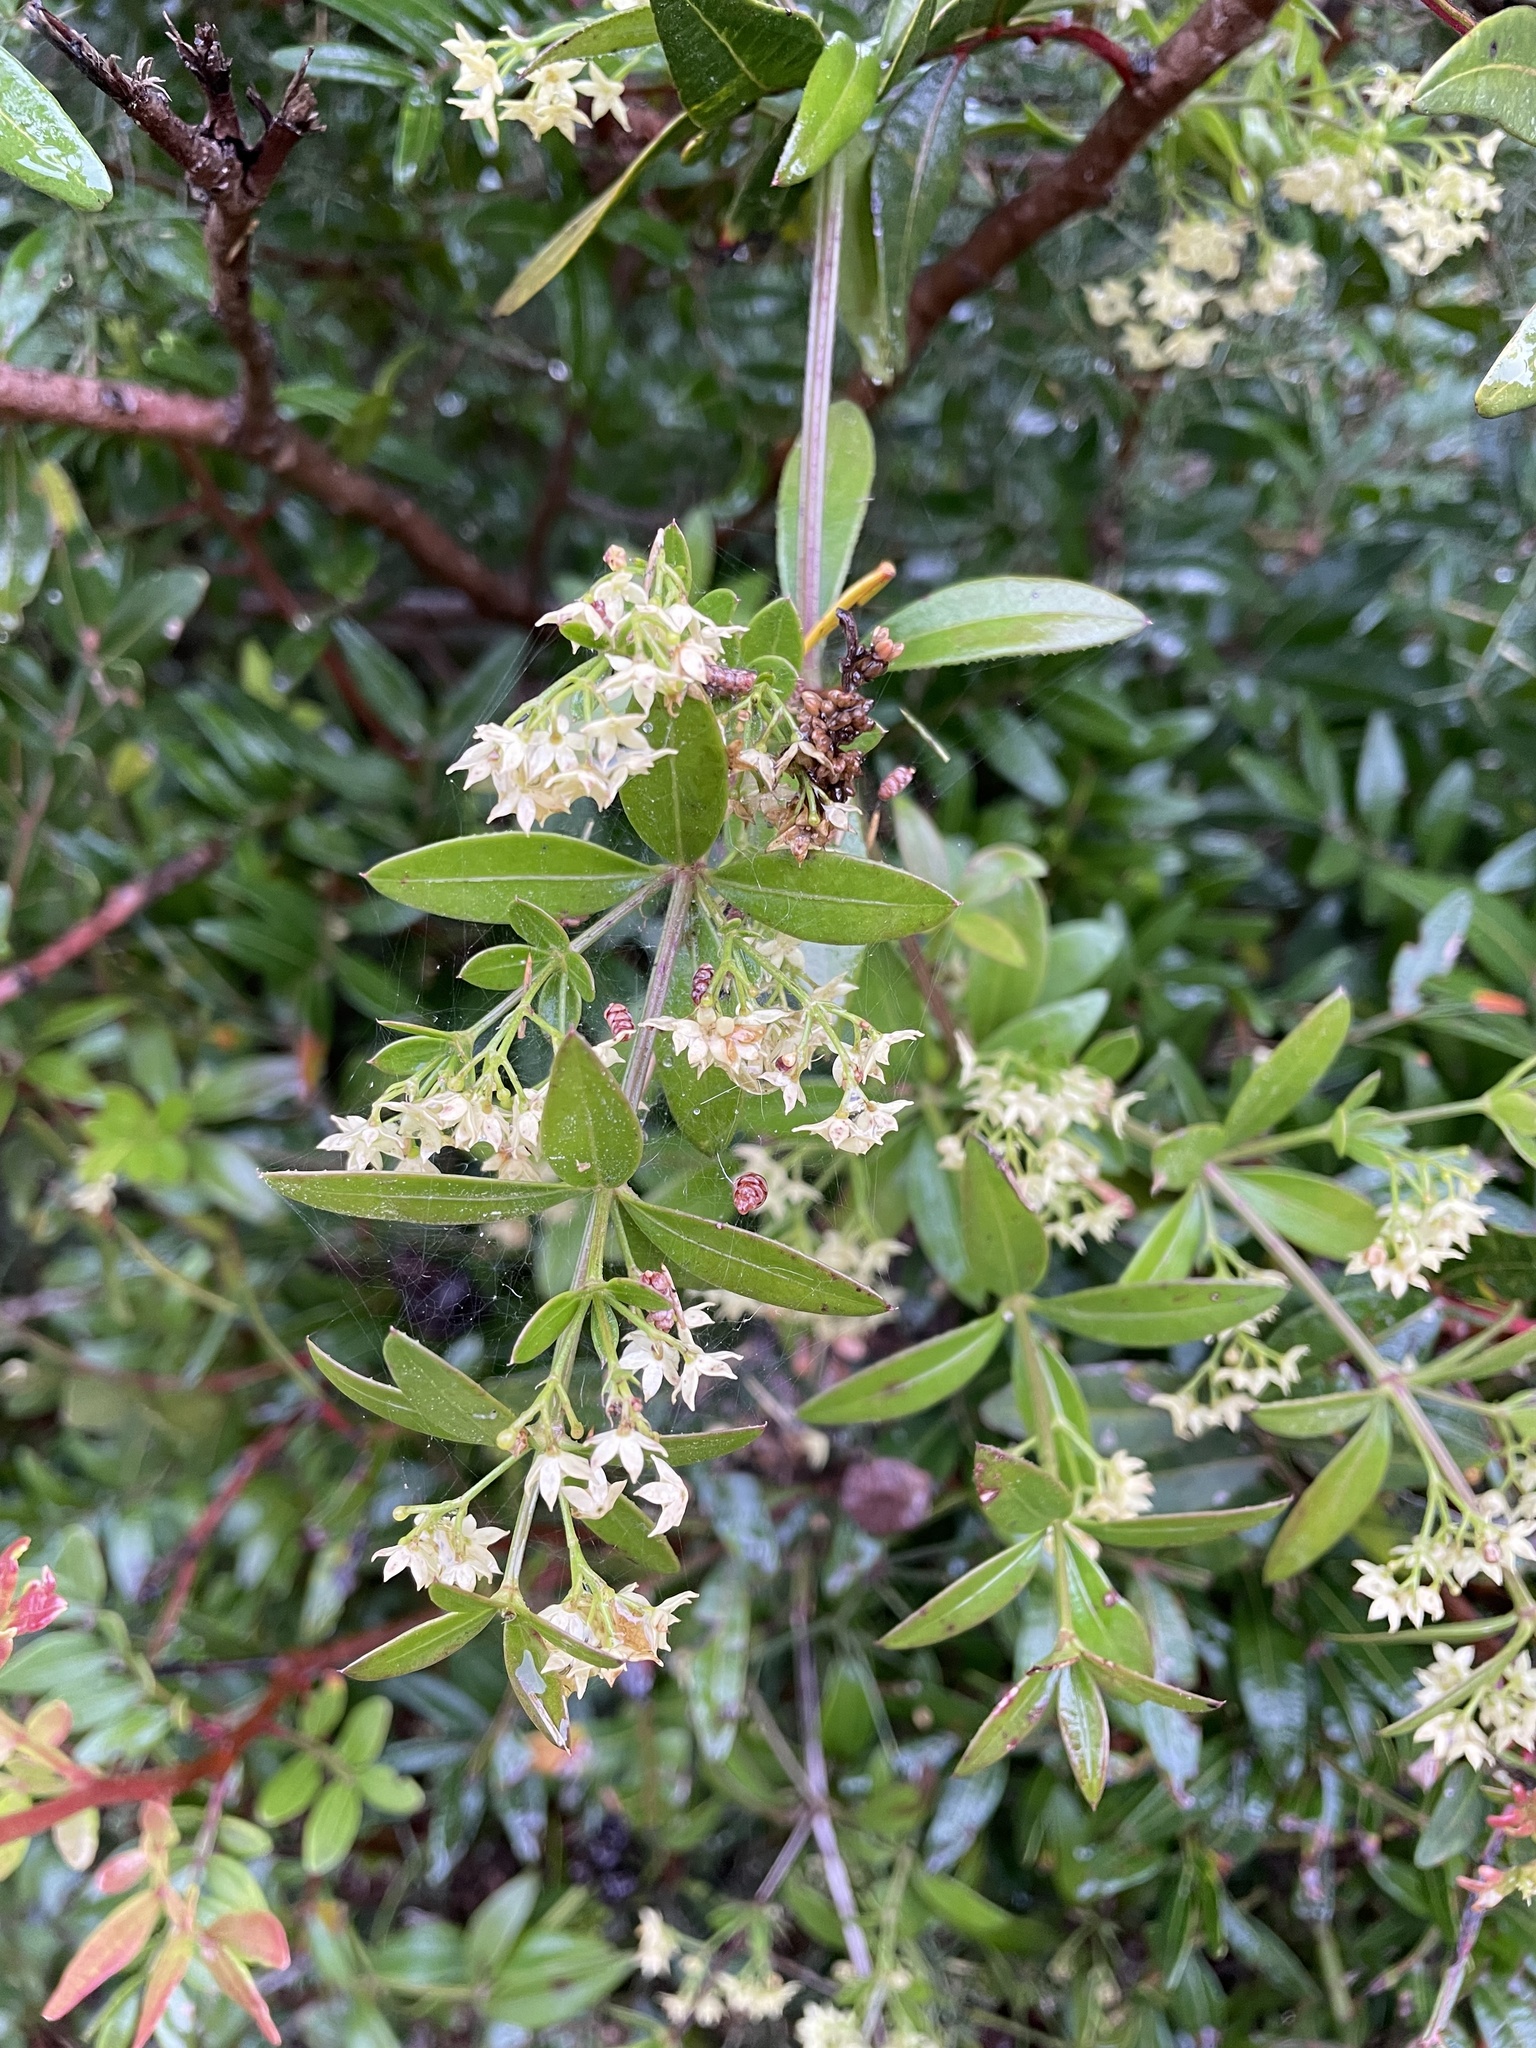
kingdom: Plantae
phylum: Tracheophyta
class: Magnoliopsida
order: Gentianales
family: Rubiaceae
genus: Rubia
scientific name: Rubia peregrina
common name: Wild madder
